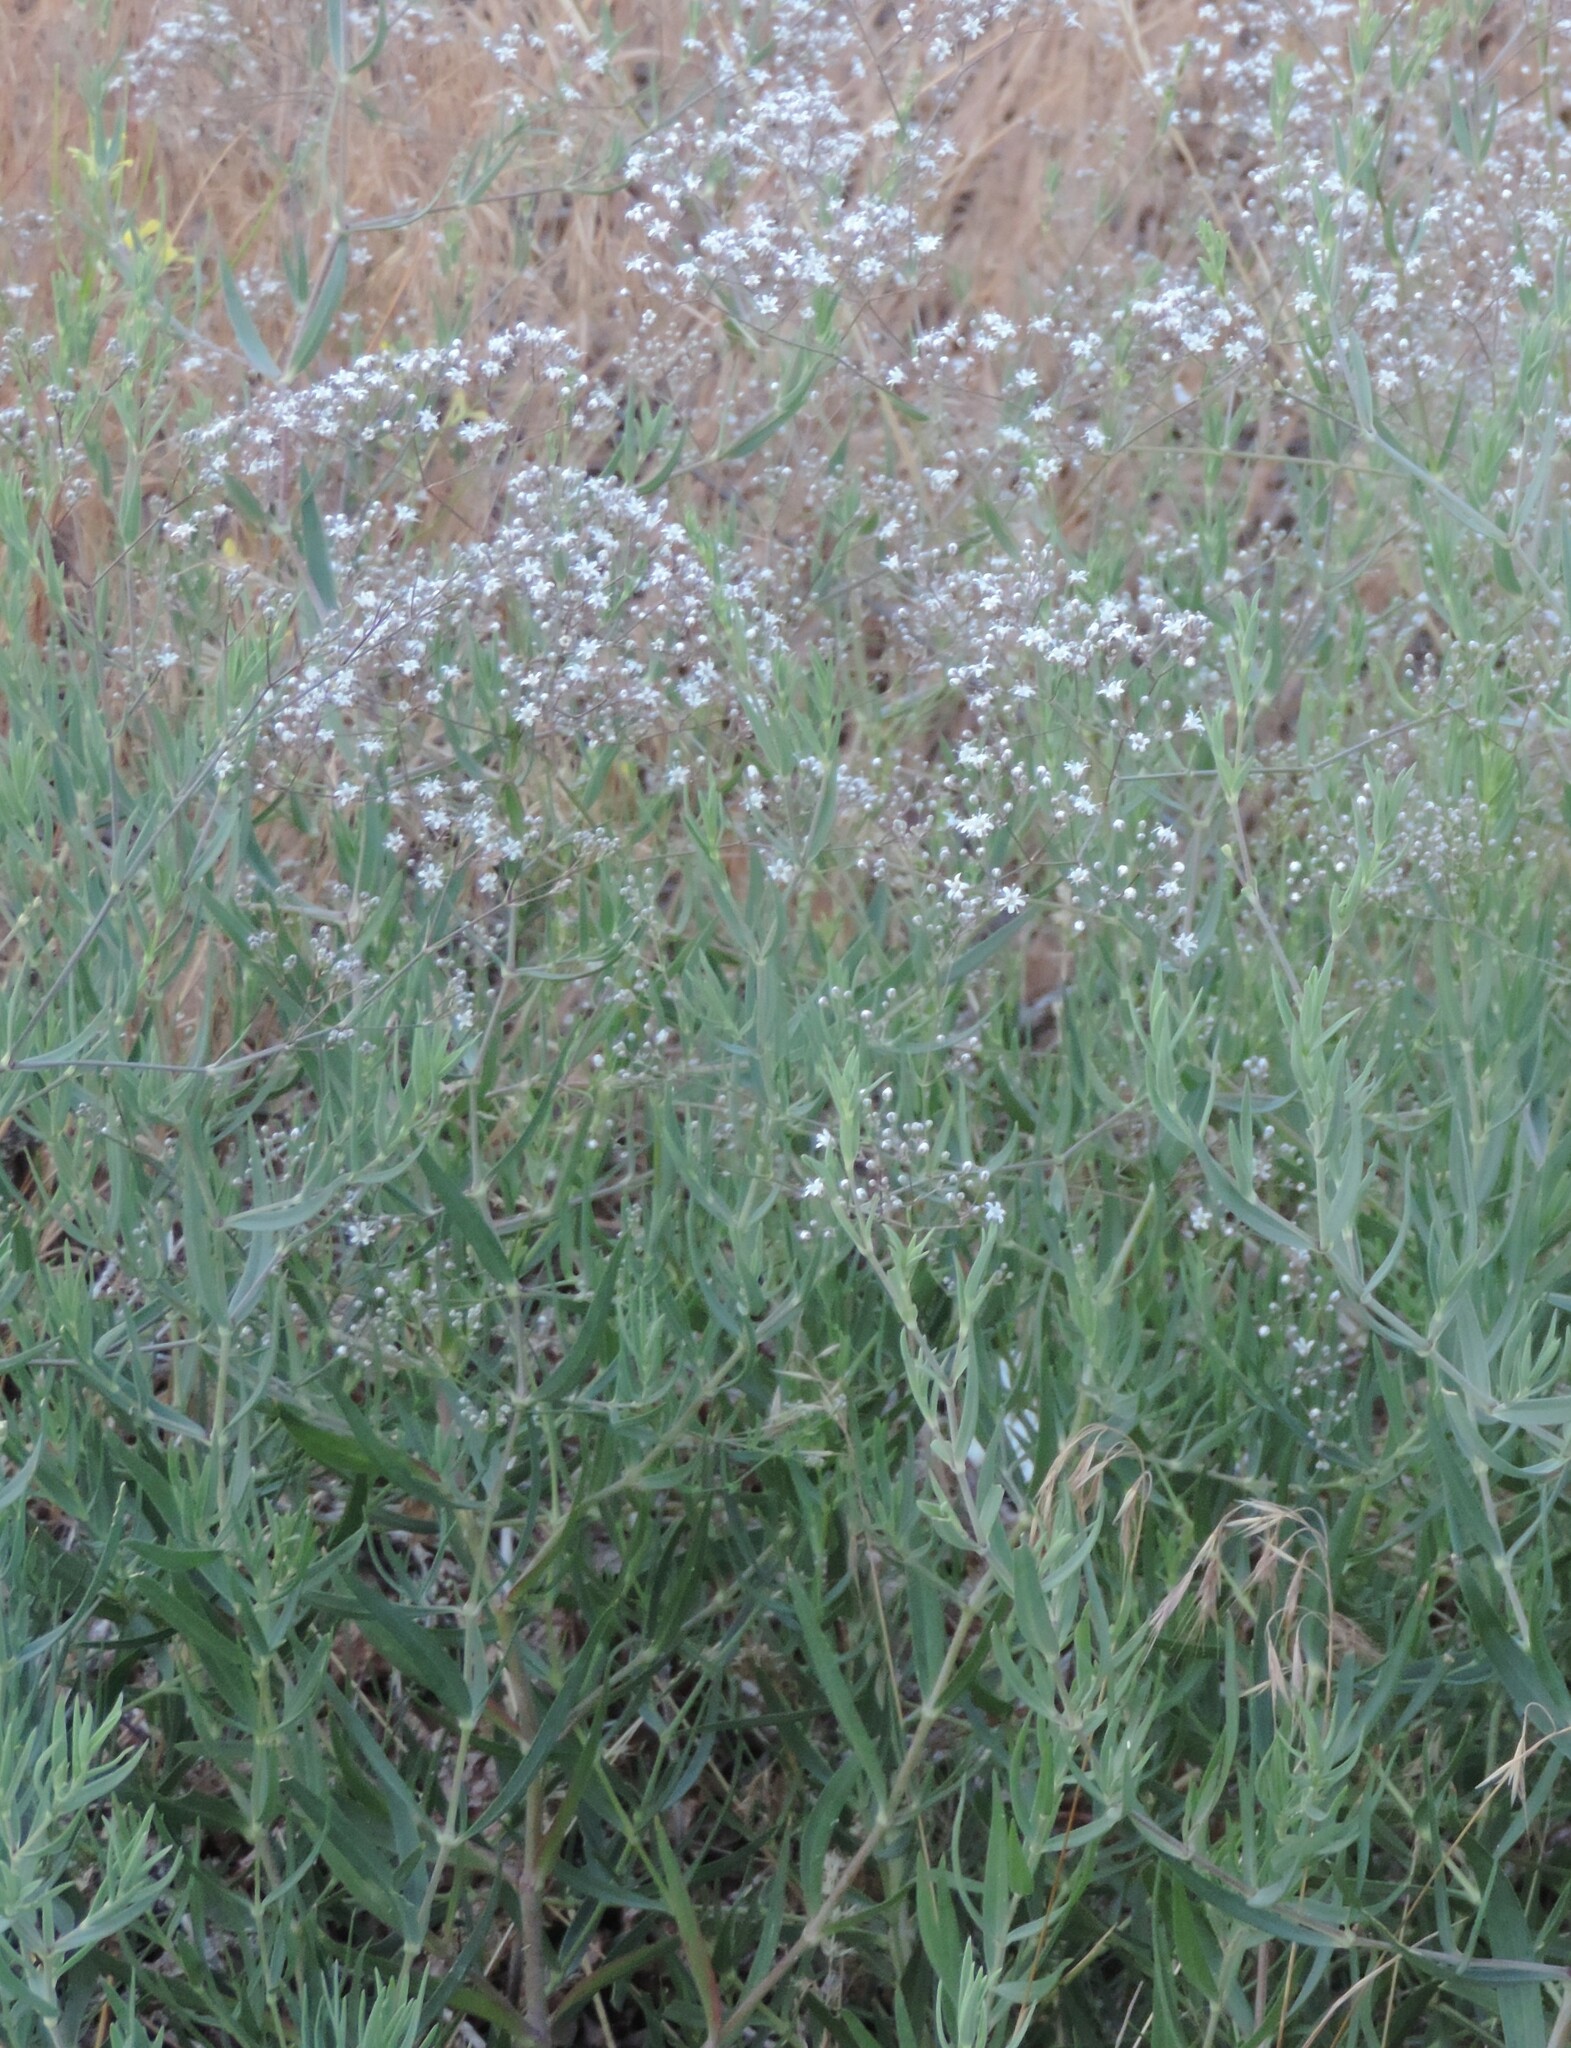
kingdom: Plantae
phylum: Tracheophyta
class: Magnoliopsida
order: Caryophyllales
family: Caryophyllaceae
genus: Gypsophila
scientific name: Gypsophila paniculata
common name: Baby's-breath
